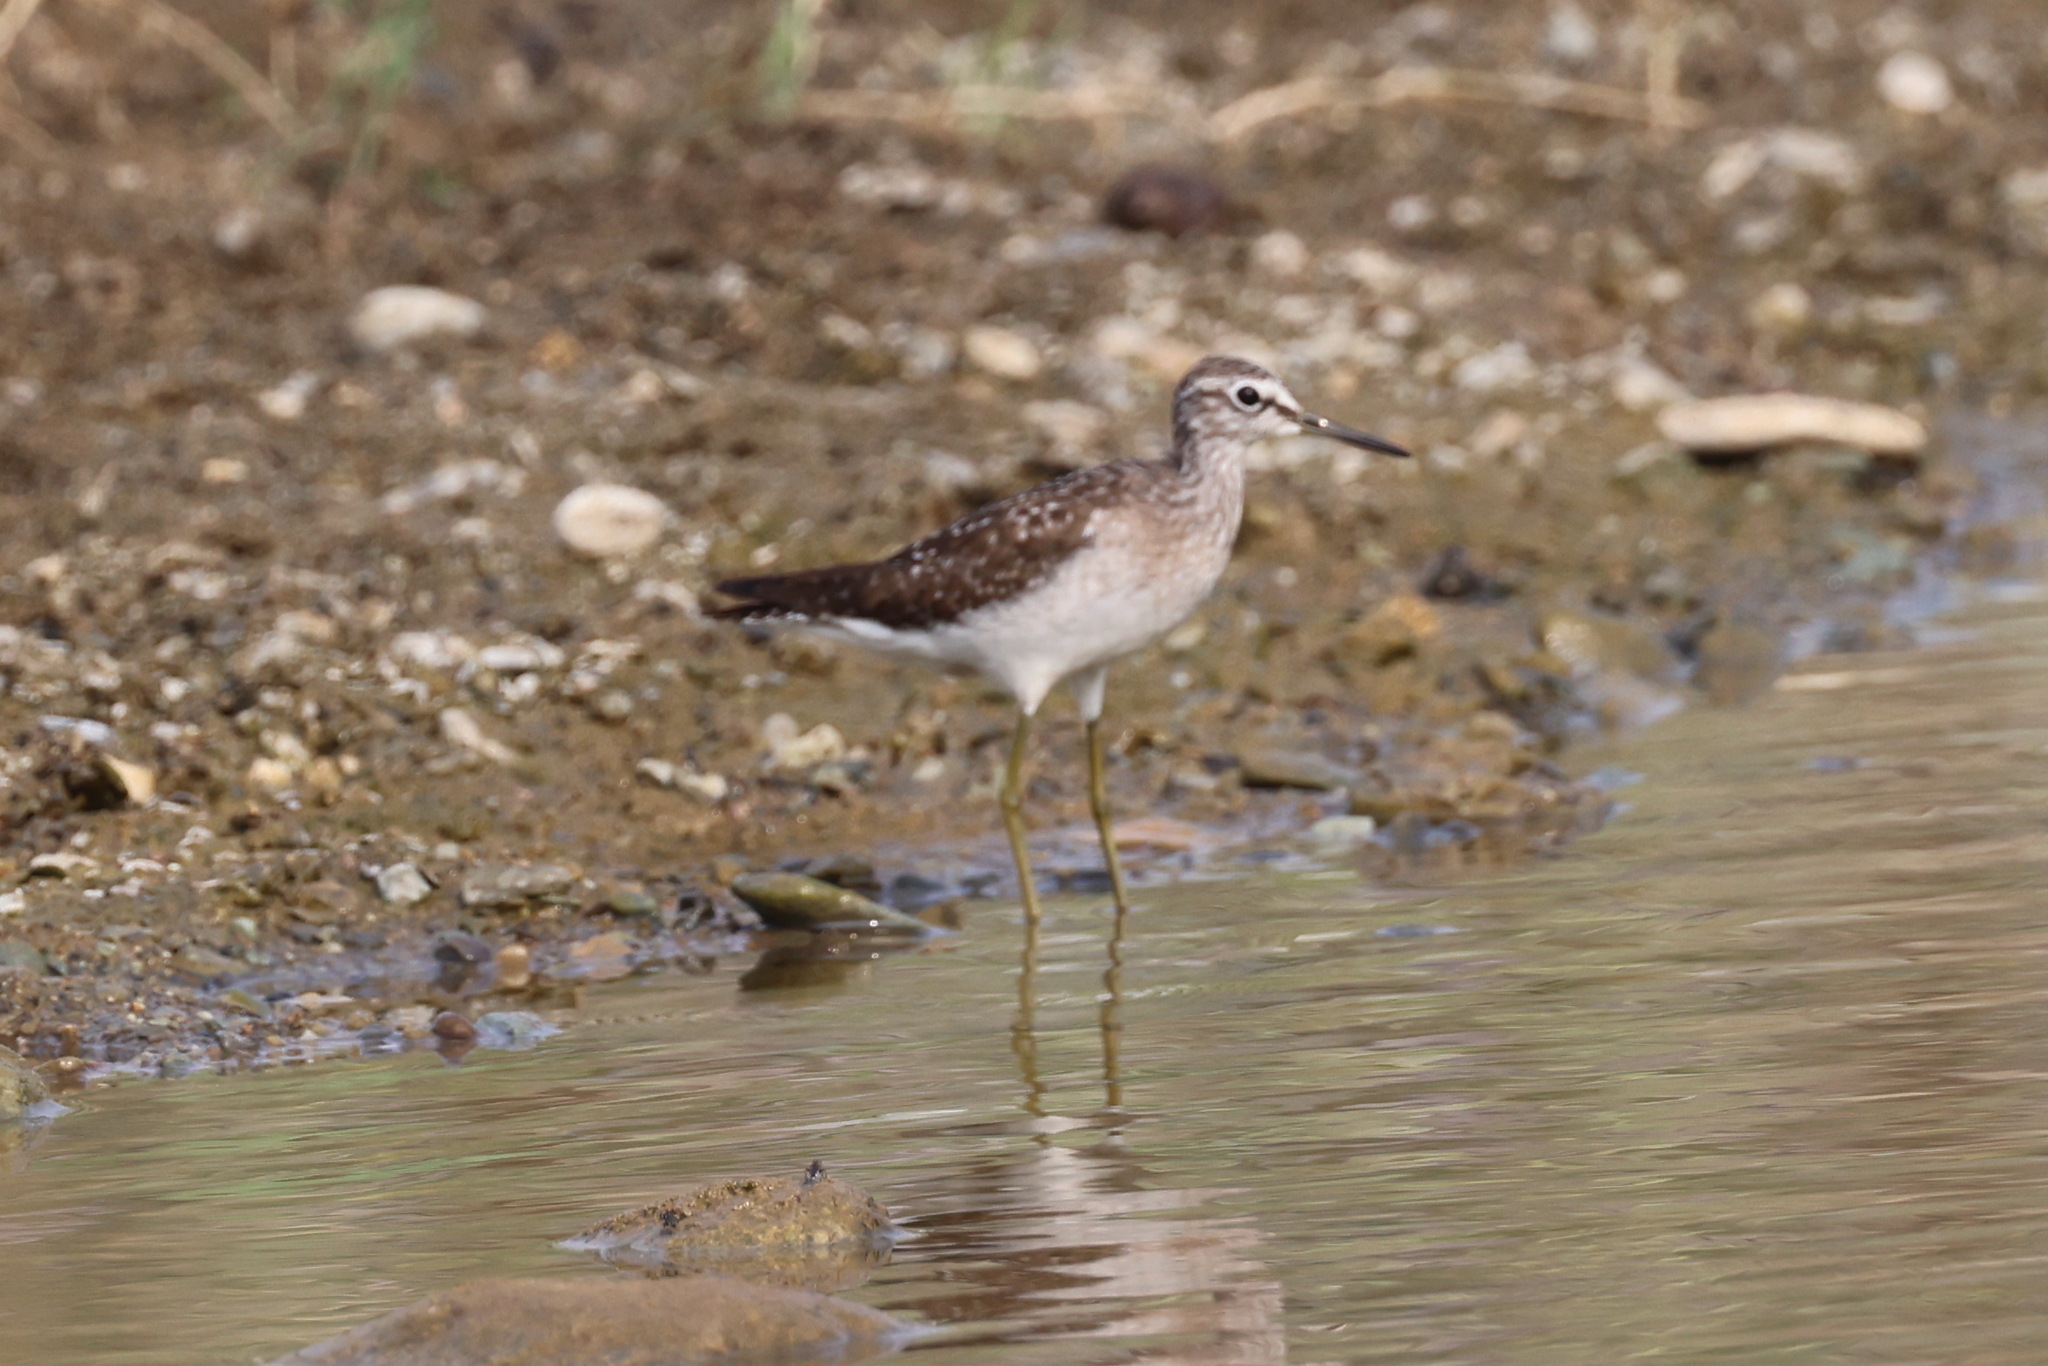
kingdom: Animalia
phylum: Chordata
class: Aves
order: Charadriiformes
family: Scolopacidae
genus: Tringa
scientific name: Tringa glareola
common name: Wood sandpiper
